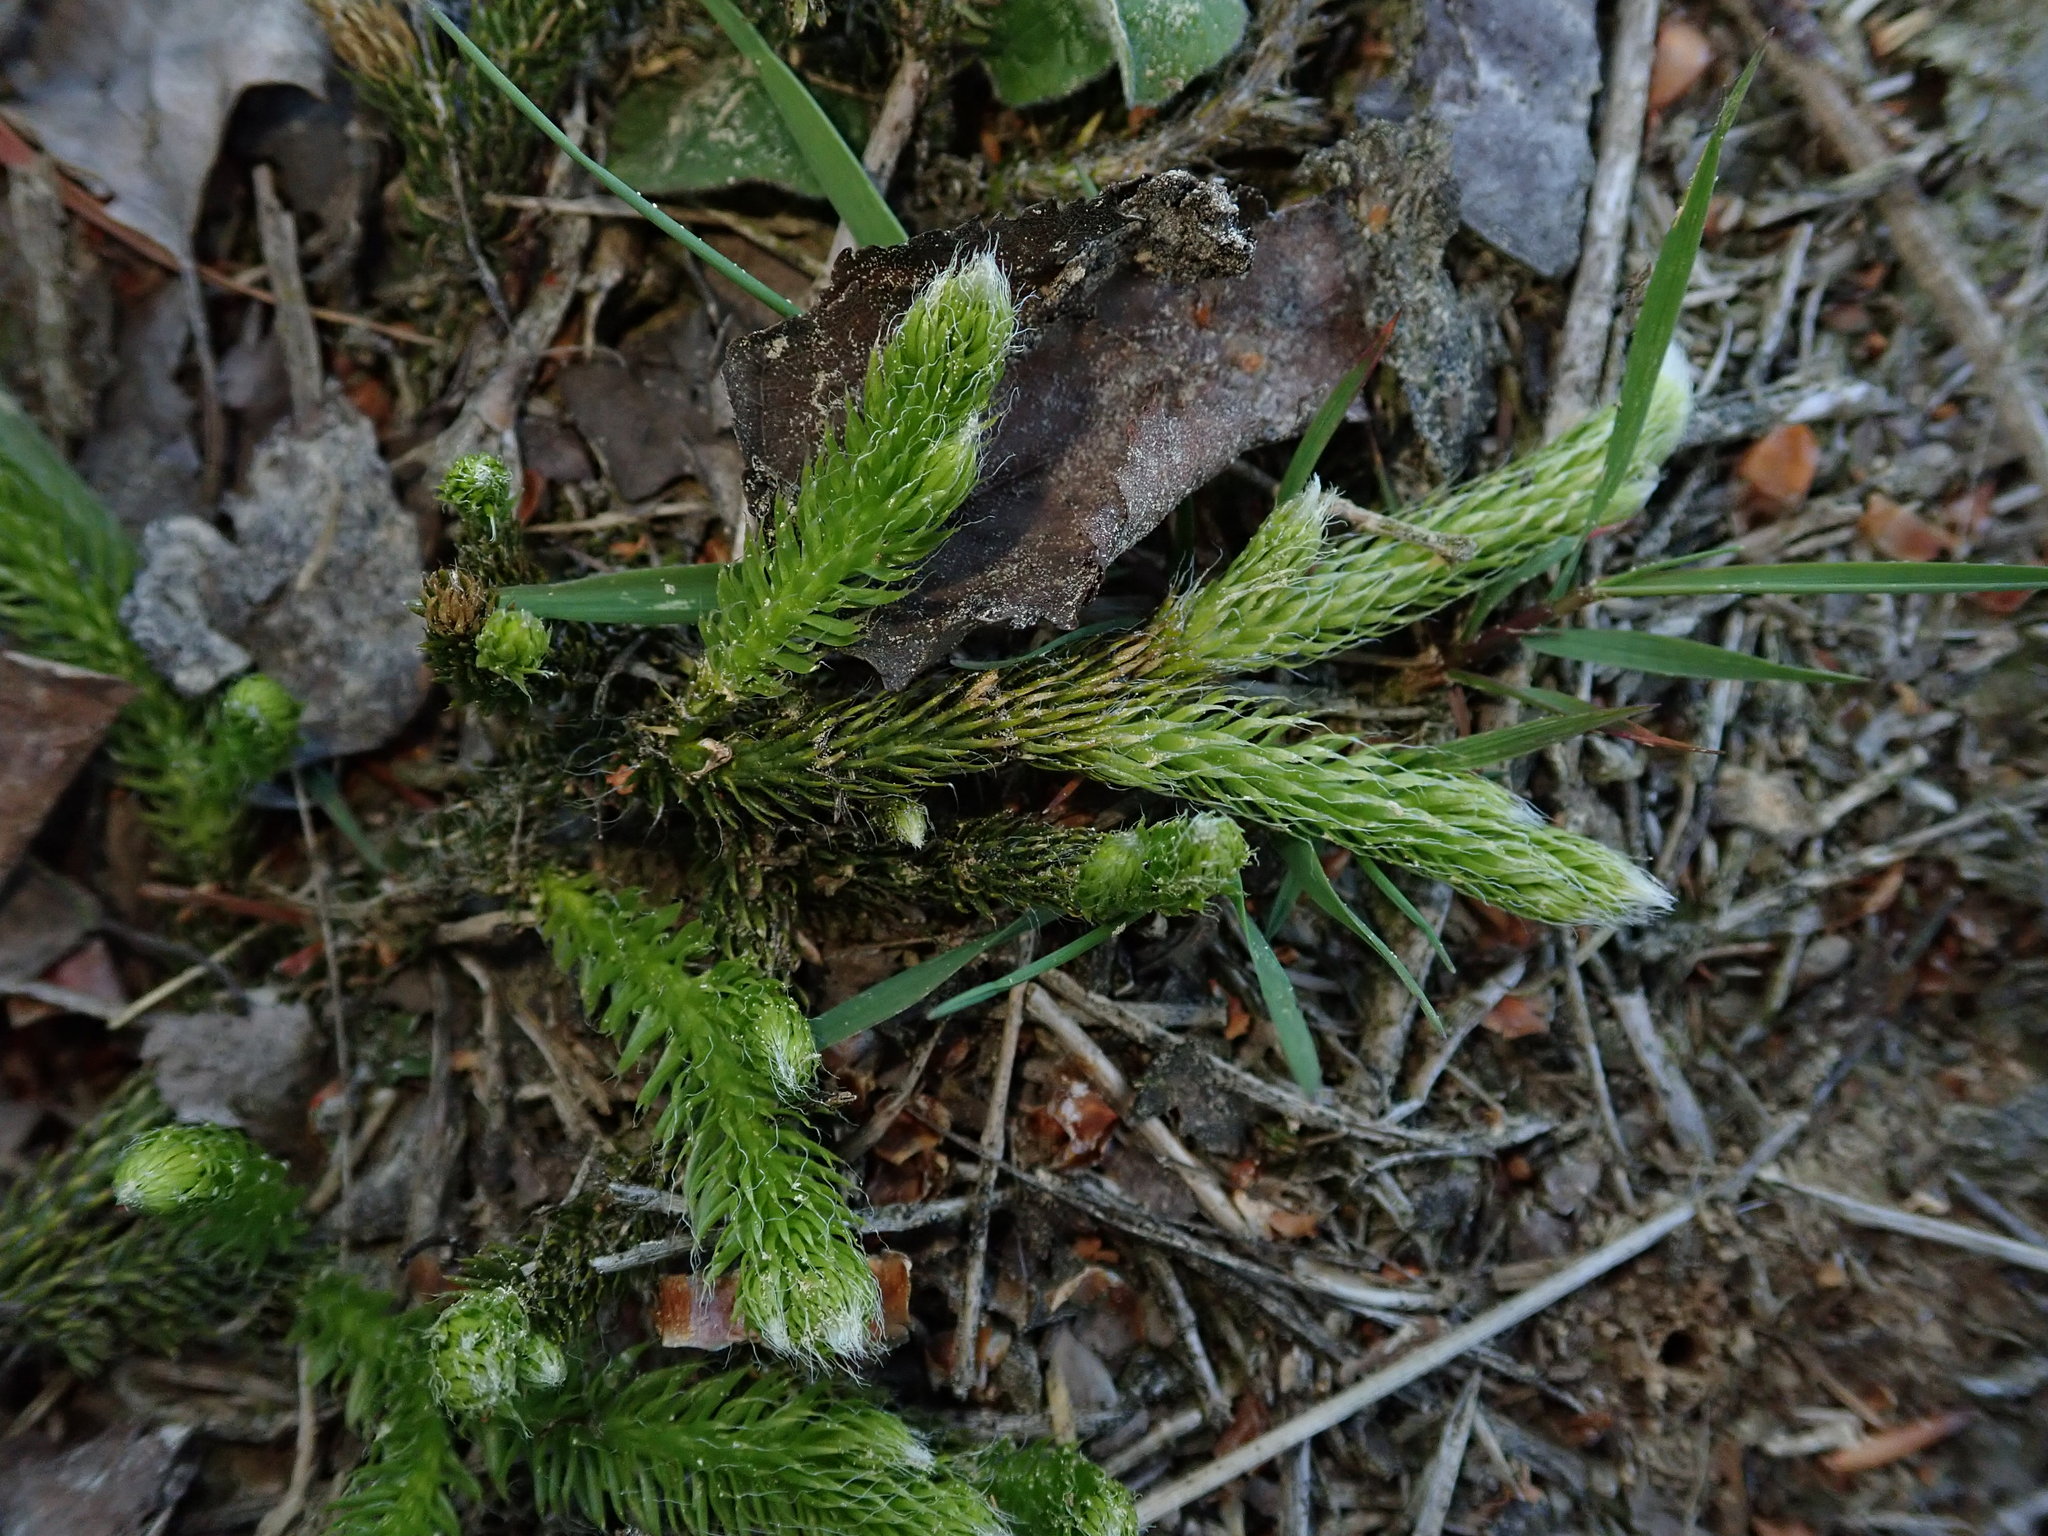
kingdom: Plantae
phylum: Tracheophyta
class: Lycopodiopsida
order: Lycopodiales
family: Lycopodiaceae
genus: Lycopodium
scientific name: Lycopodium clavatum
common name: Stag's-horn clubmoss
